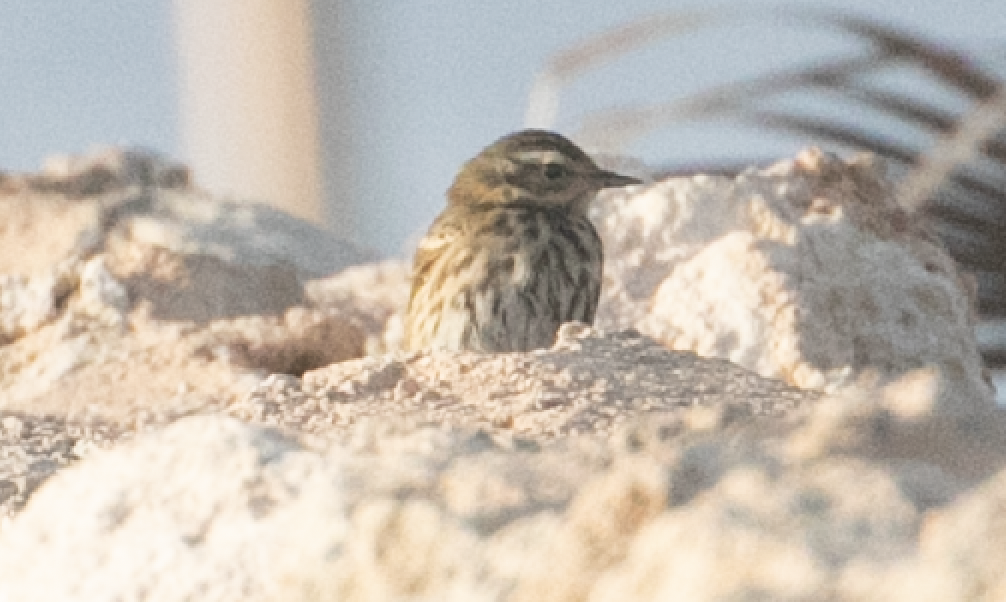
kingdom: Animalia
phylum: Chordata
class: Aves
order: Passeriformes
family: Motacillidae
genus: Anthus
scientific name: Anthus hodgsoni
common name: Olive-backed pipit
